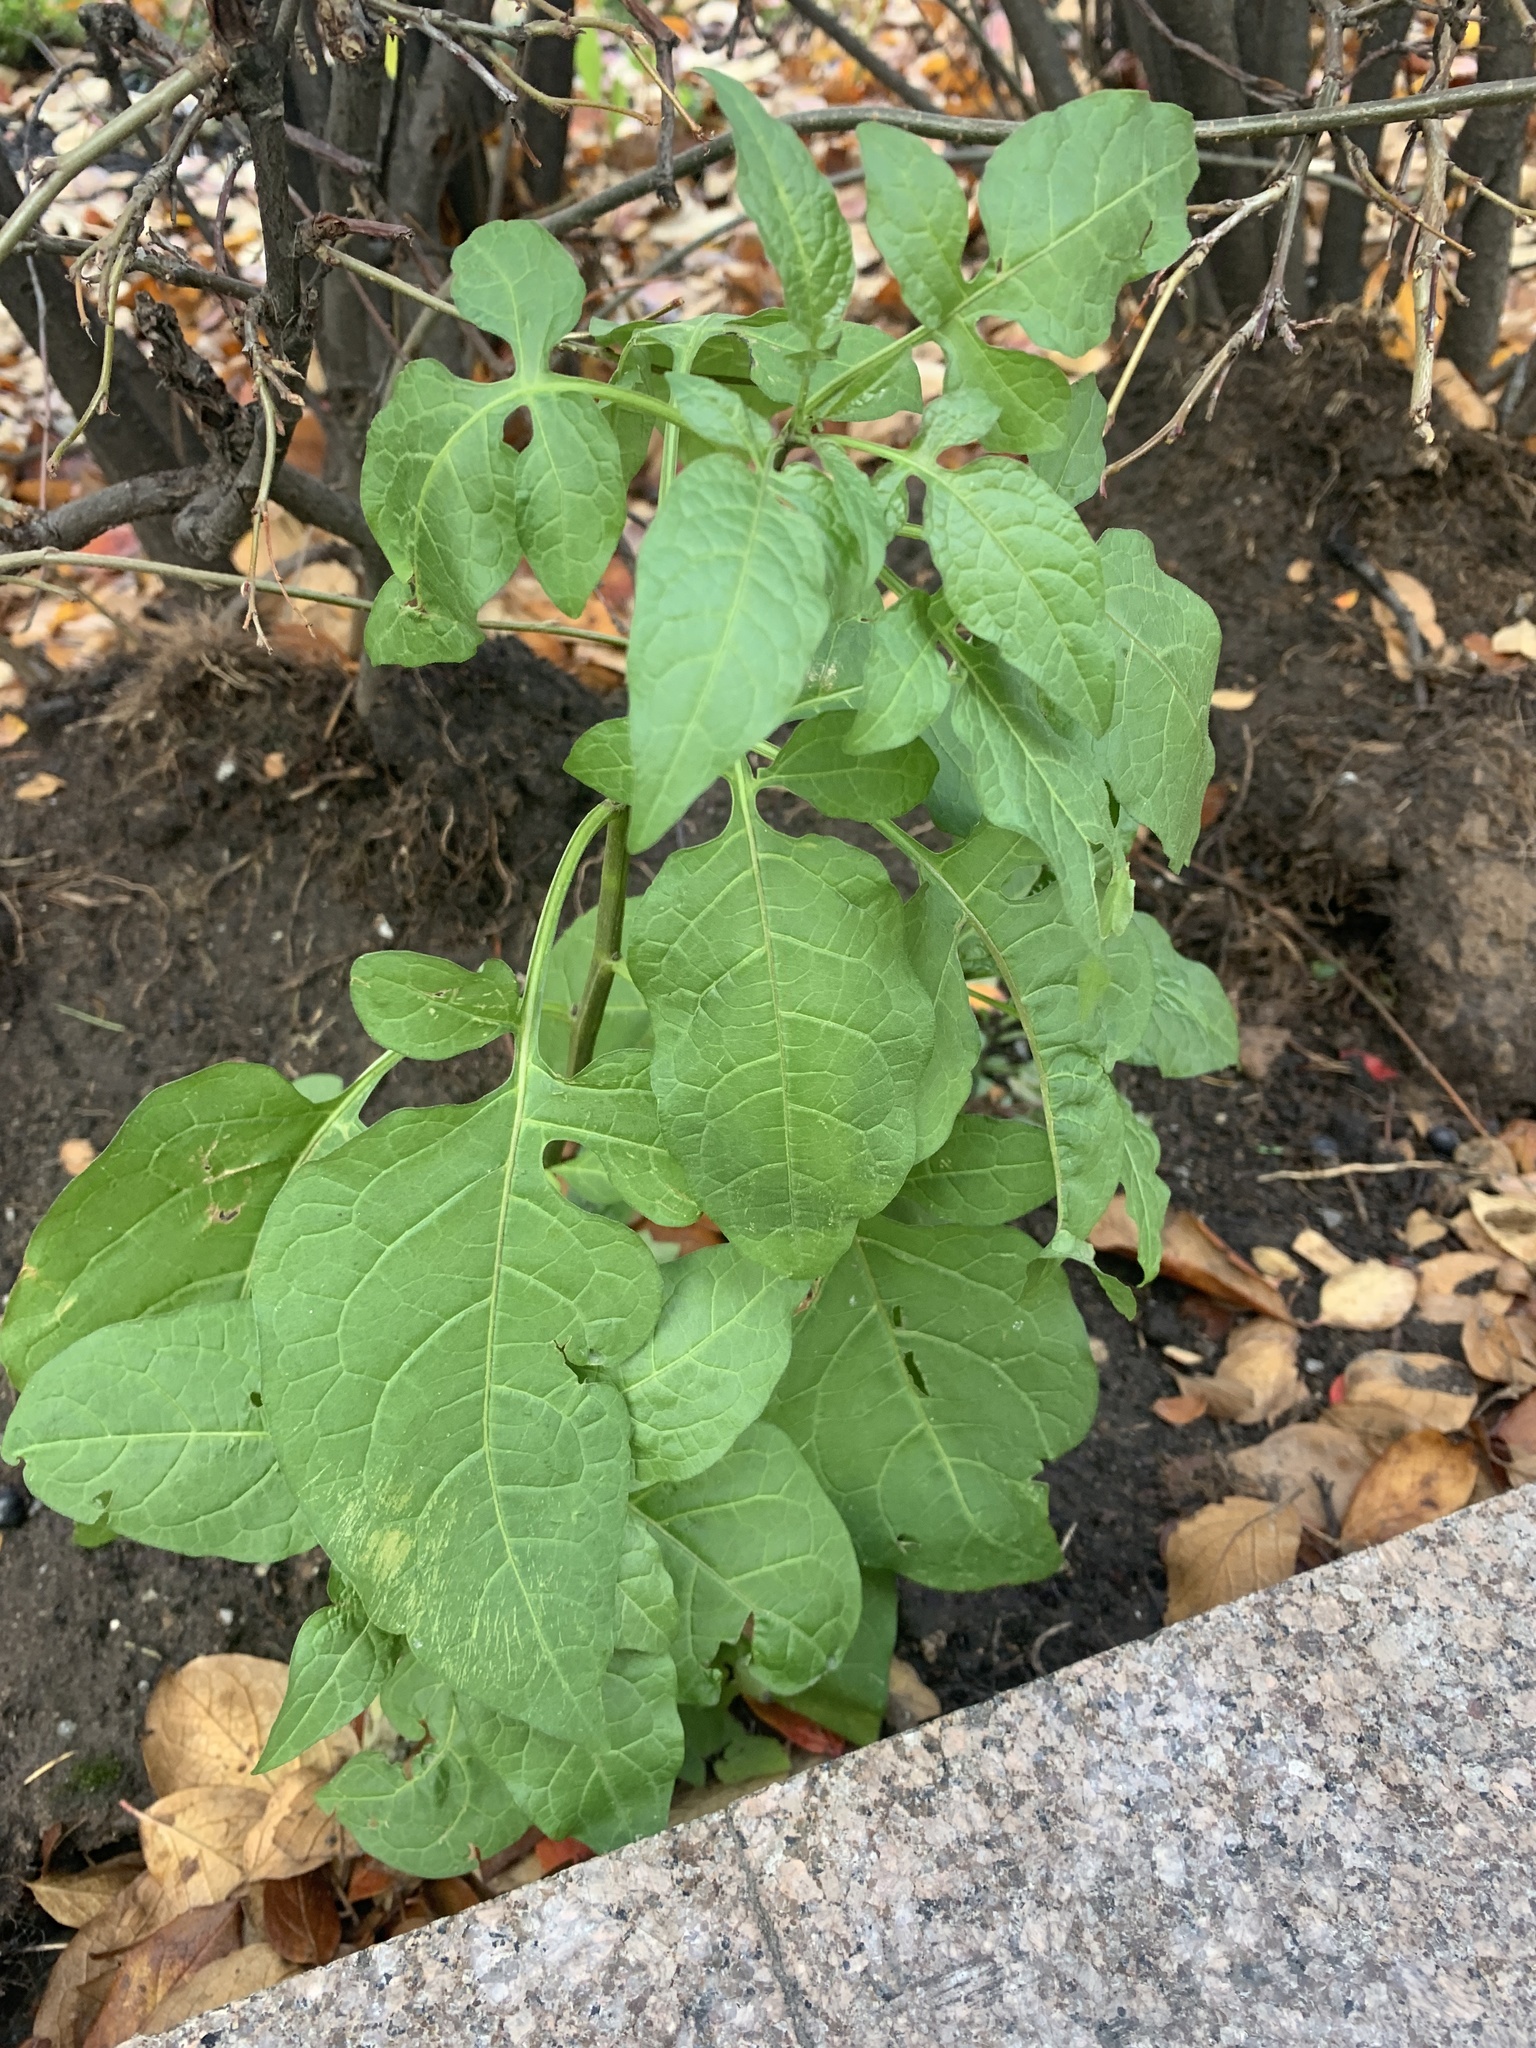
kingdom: Plantae
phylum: Tracheophyta
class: Magnoliopsida
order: Solanales
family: Solanaceae
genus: Solanum
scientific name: Solanum dulcamara
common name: Climbing nightshade
